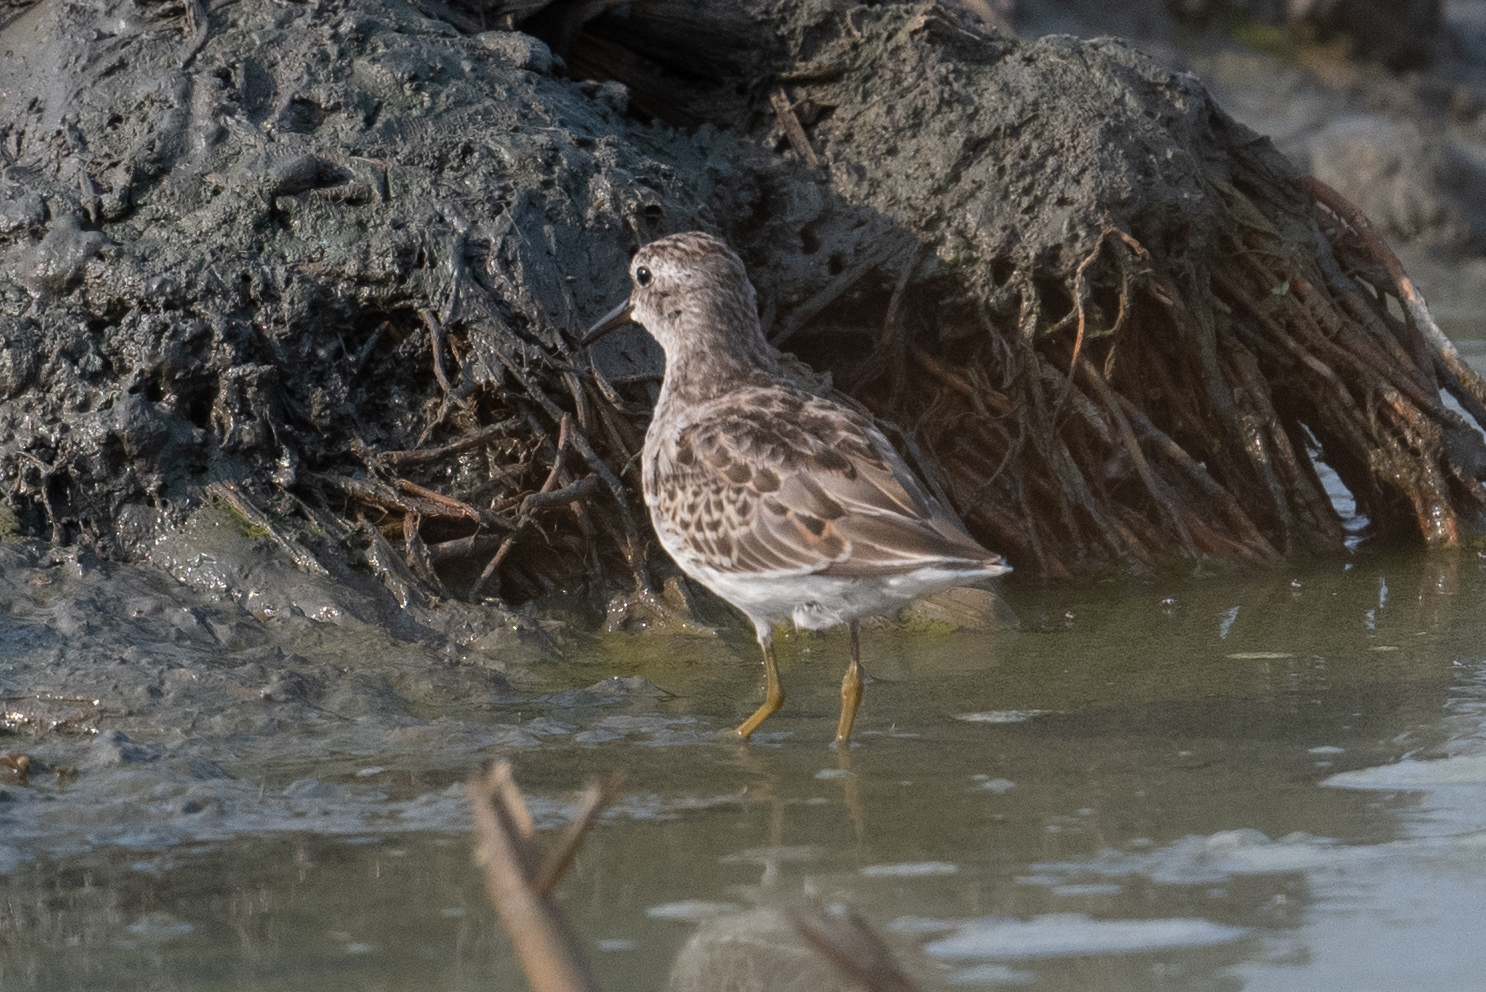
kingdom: Animalia
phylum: Chordata
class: Aves
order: Charadriiformes
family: Scolopacidae
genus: Calidris
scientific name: Calidris minutilla
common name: Least sandpiper
